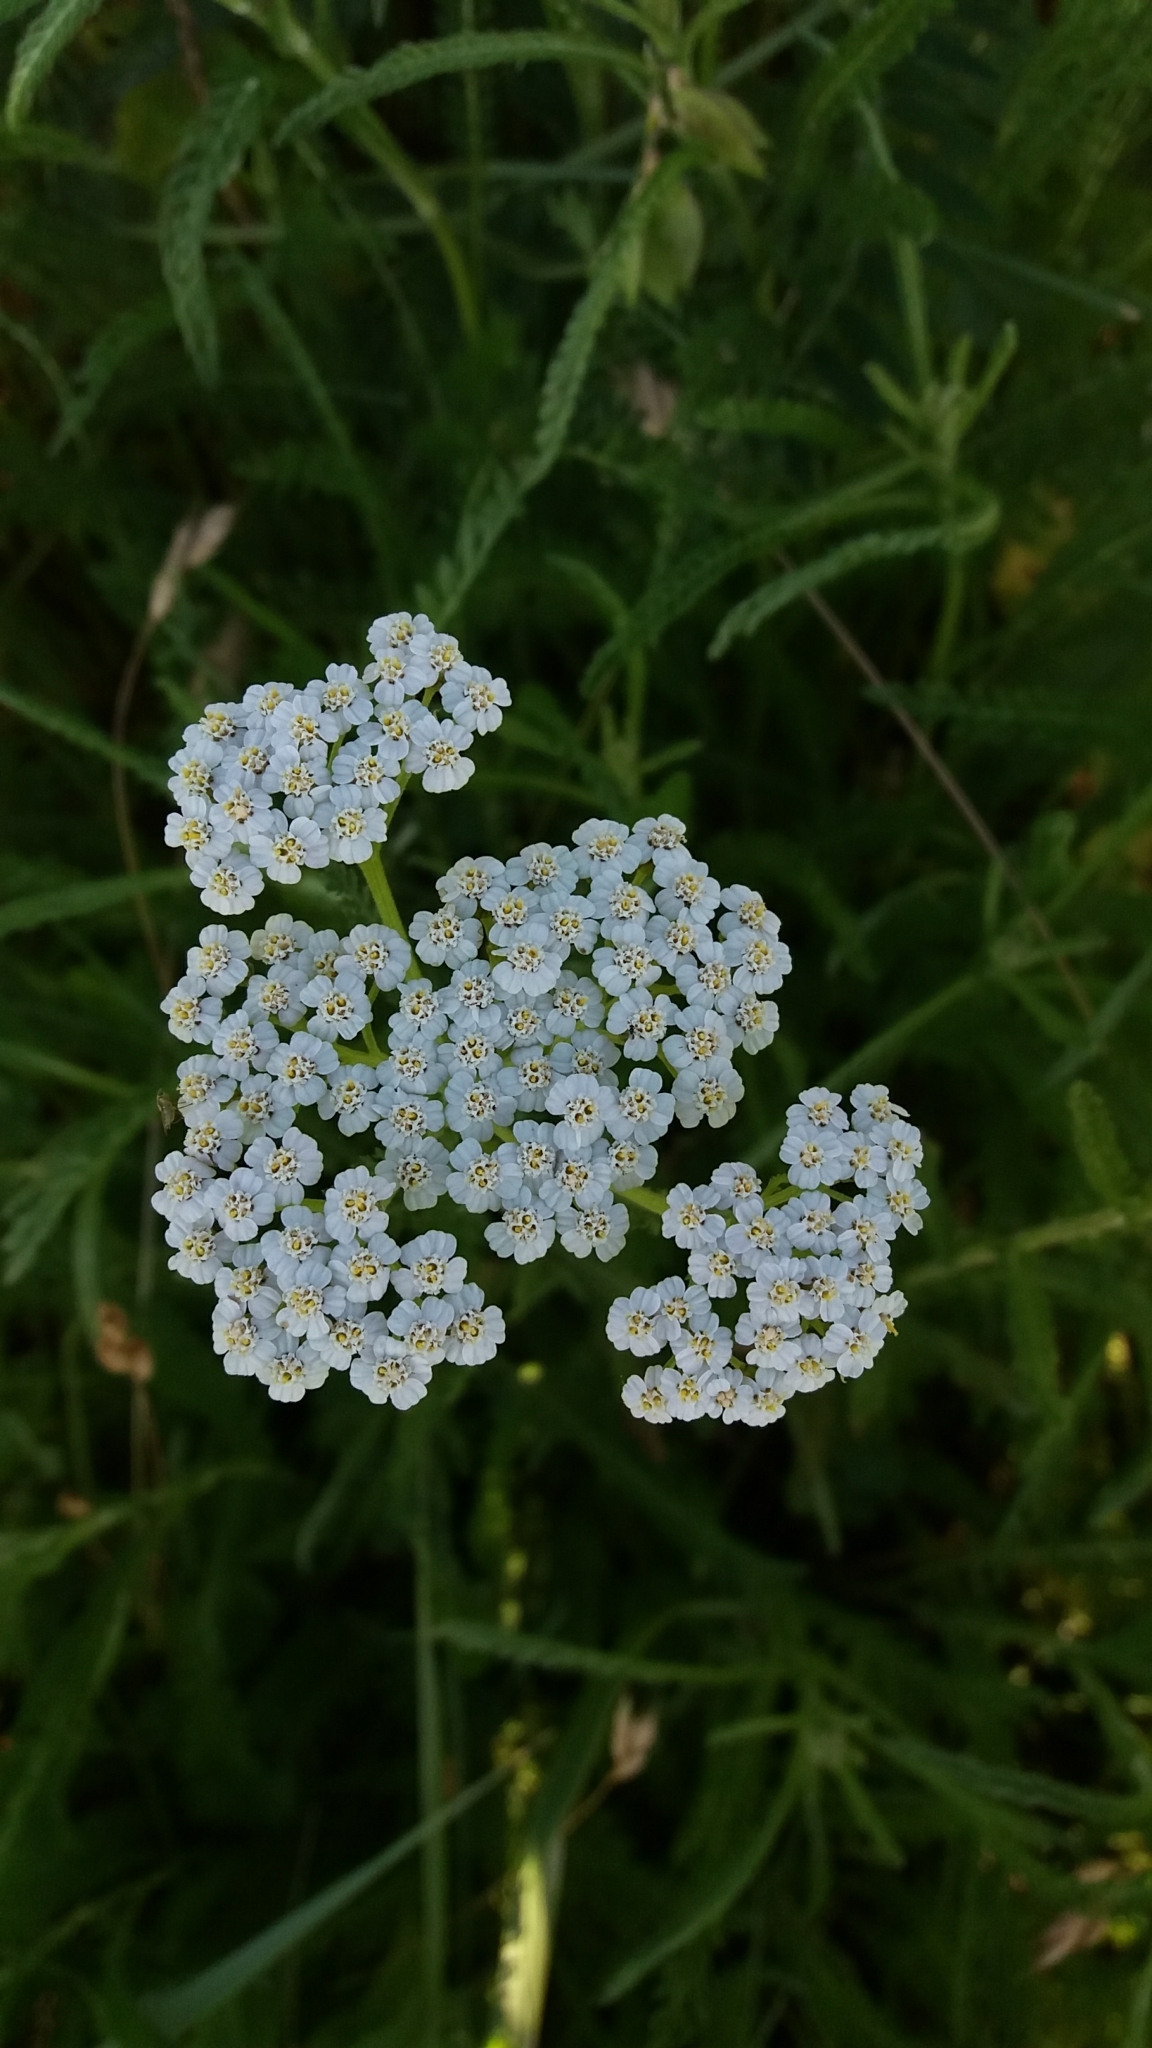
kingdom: Plantae
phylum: Tracheophyta
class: Magnoliopsida
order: Asterales
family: Asteraceae
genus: Achillea
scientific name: Achillea millefolium
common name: Yarrow
